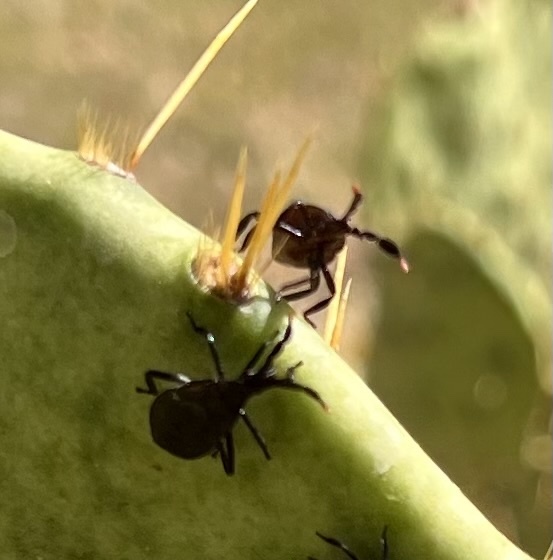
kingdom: Animalia
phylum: Arthropoda
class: Insecta
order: Hemiptera
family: Coreidae
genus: Chelinidea
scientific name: Chelinidea vittiger
